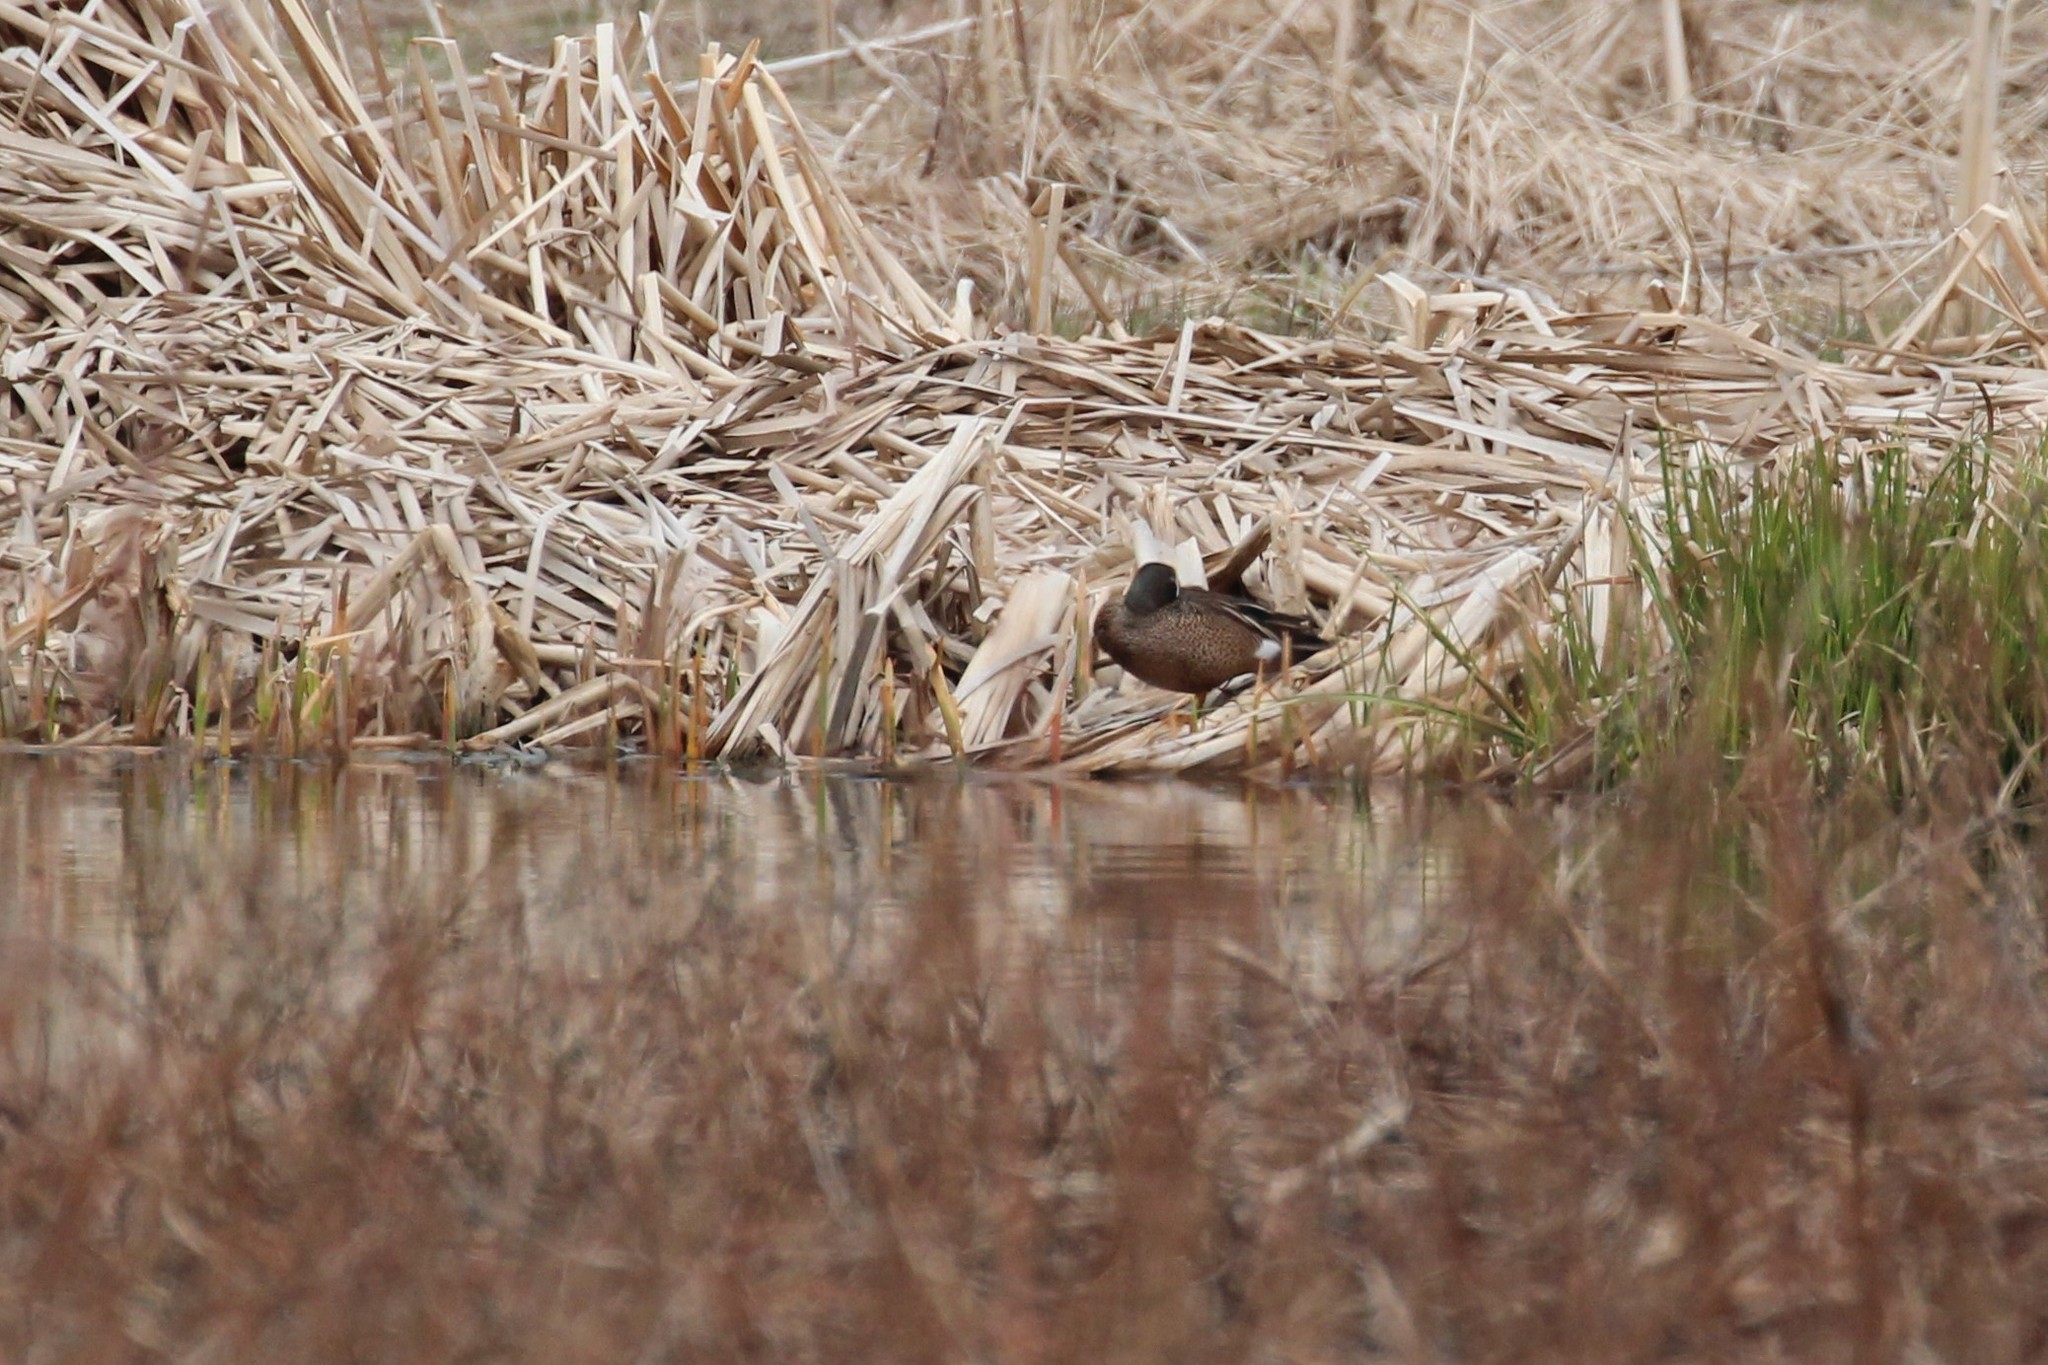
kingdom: Animalia
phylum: Chordata
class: Aves
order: Anseriformes
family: Anatidae
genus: Spatula
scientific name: Spatula discors
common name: Blue-winged teal
